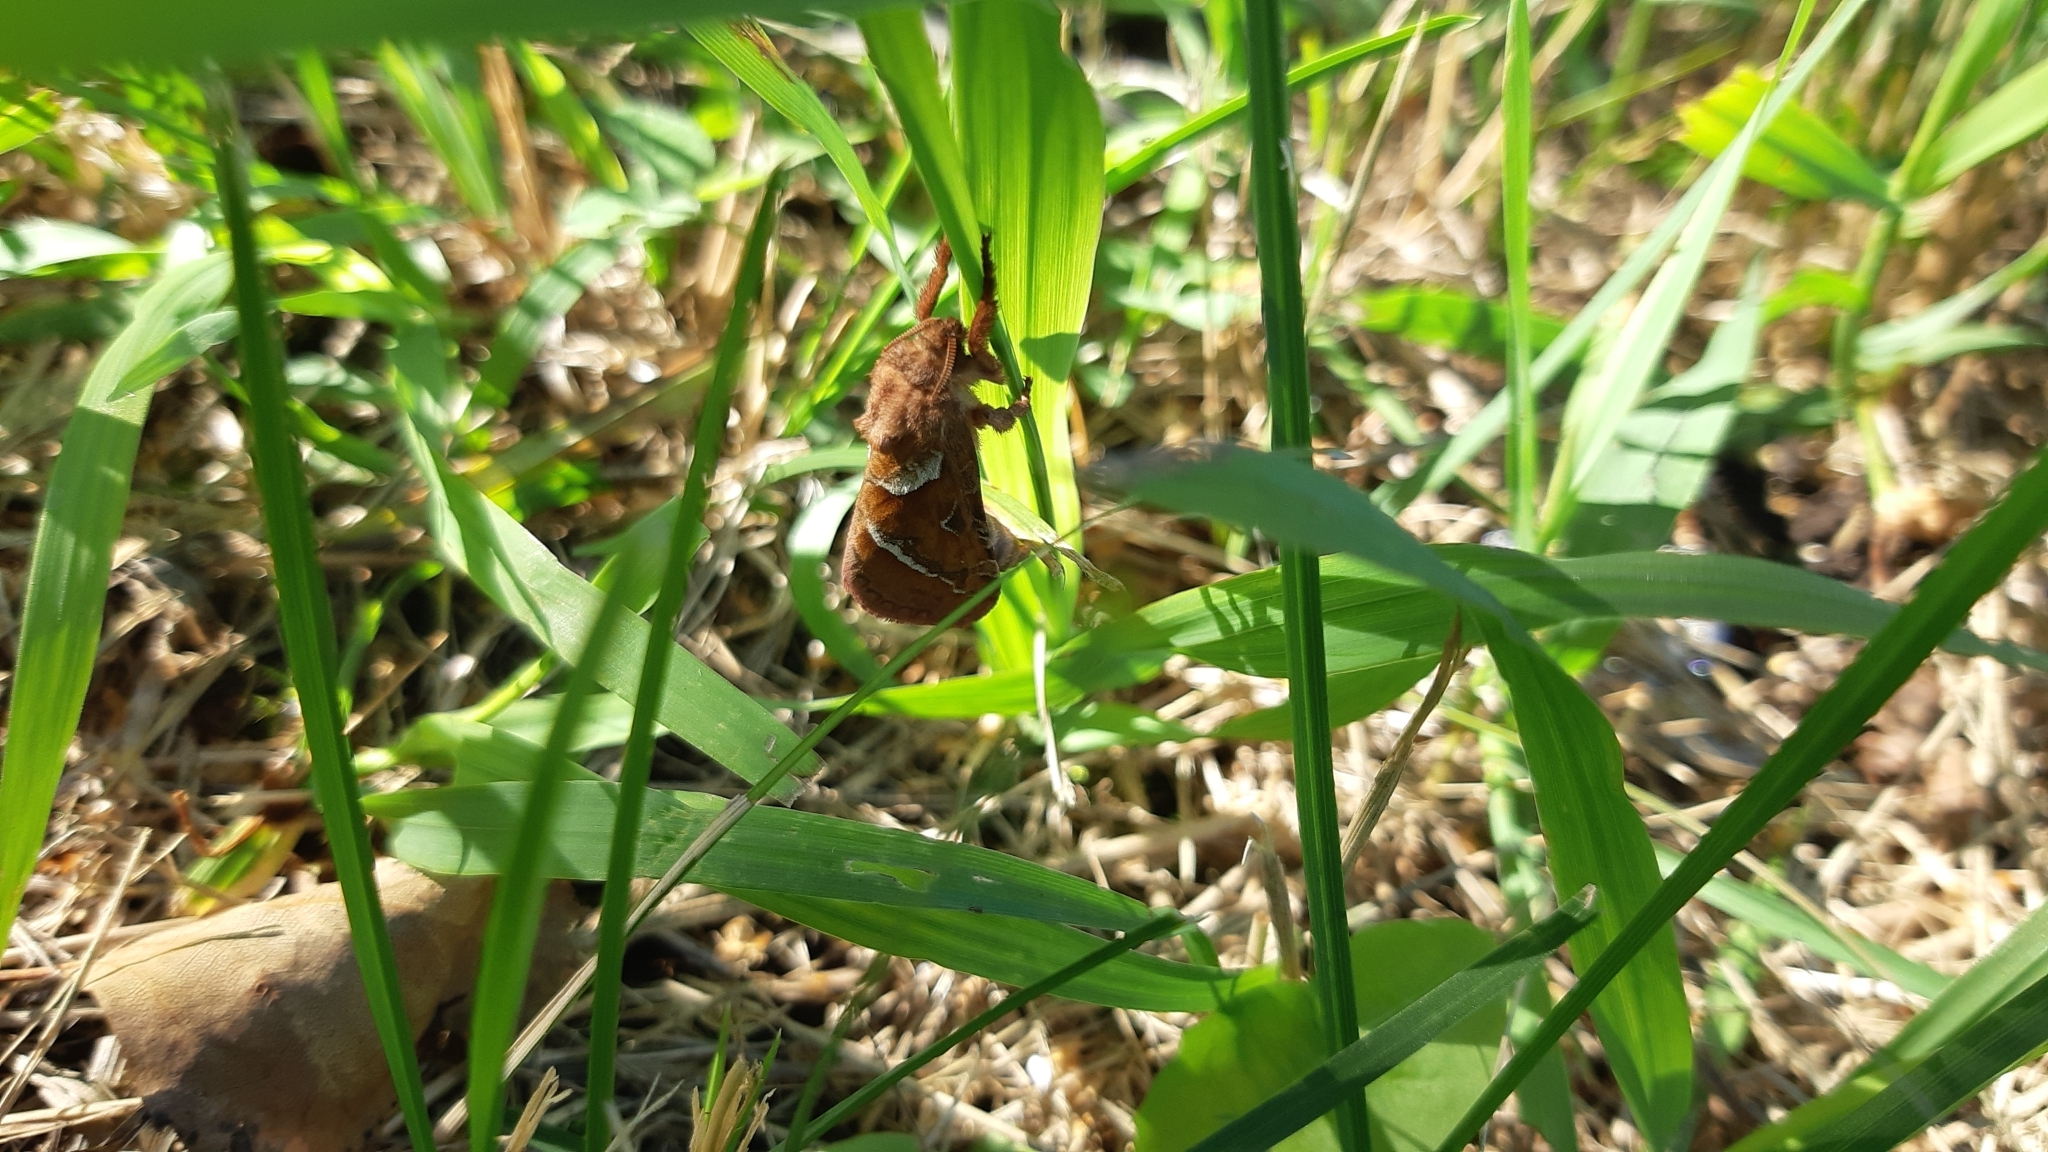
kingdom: Animalia
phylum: Arthropoda
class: Insecta
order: Lepidoptera
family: Hepialidae
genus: Triodia
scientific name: Triodia sylvina
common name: Orange swift
